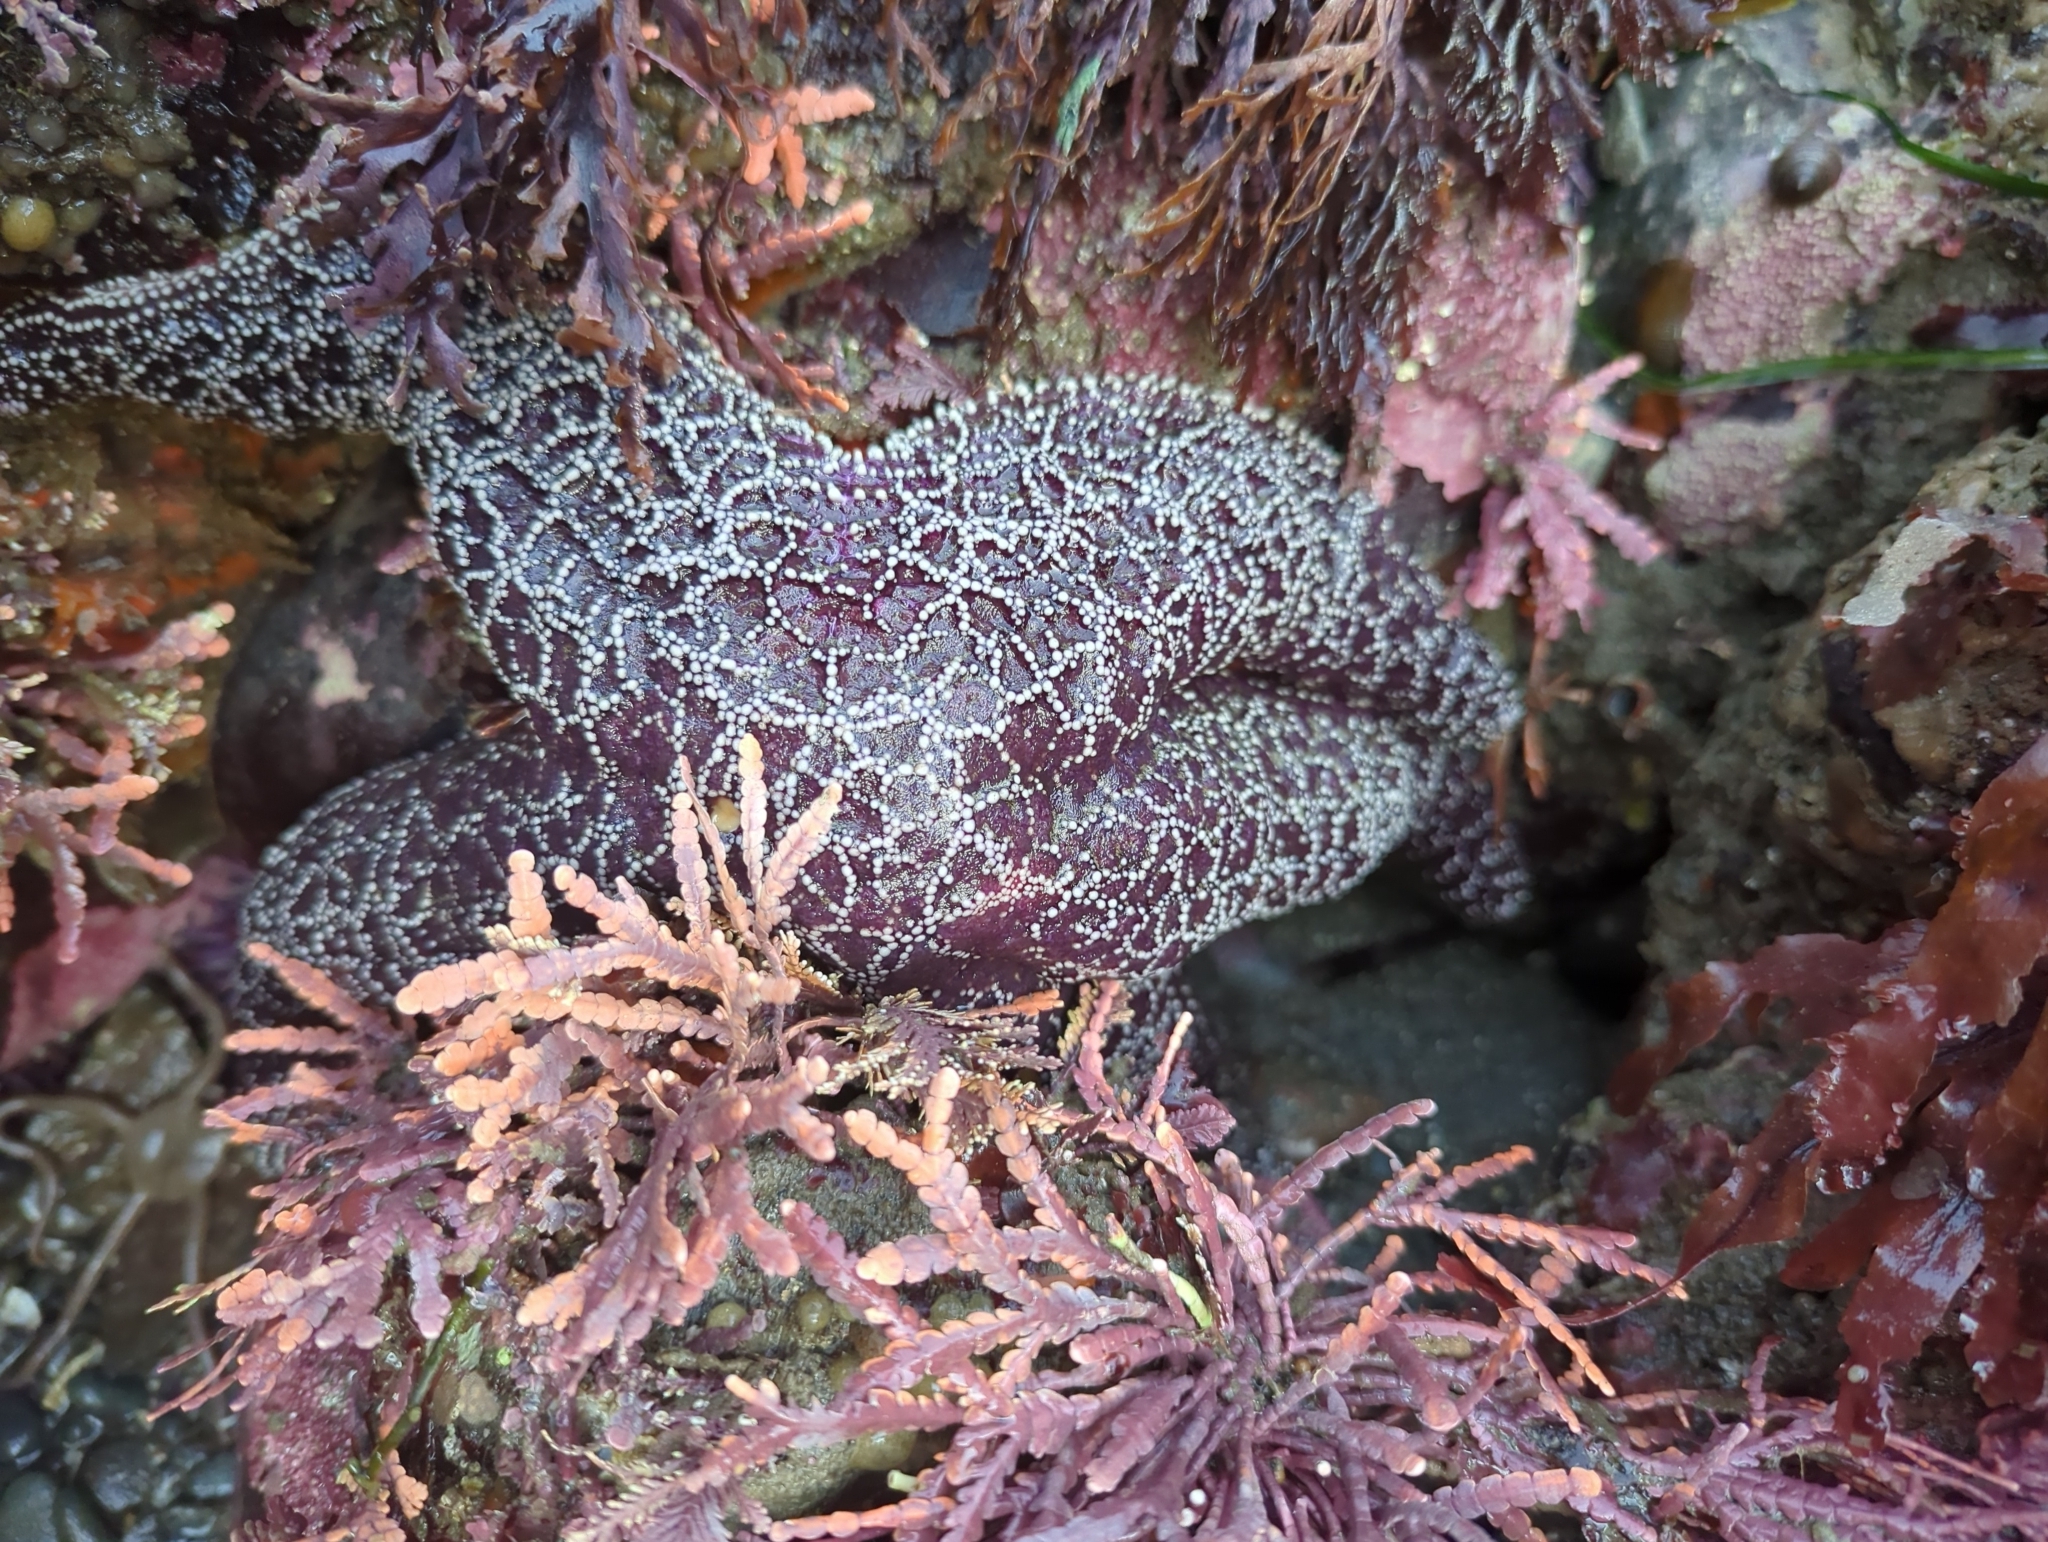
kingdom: Animalia
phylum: Echinodermata
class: Asteroidea
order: Forcipulatida
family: Asteriidae
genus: Pisaster
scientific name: Pisaster ochraceus
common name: Ochre stars
